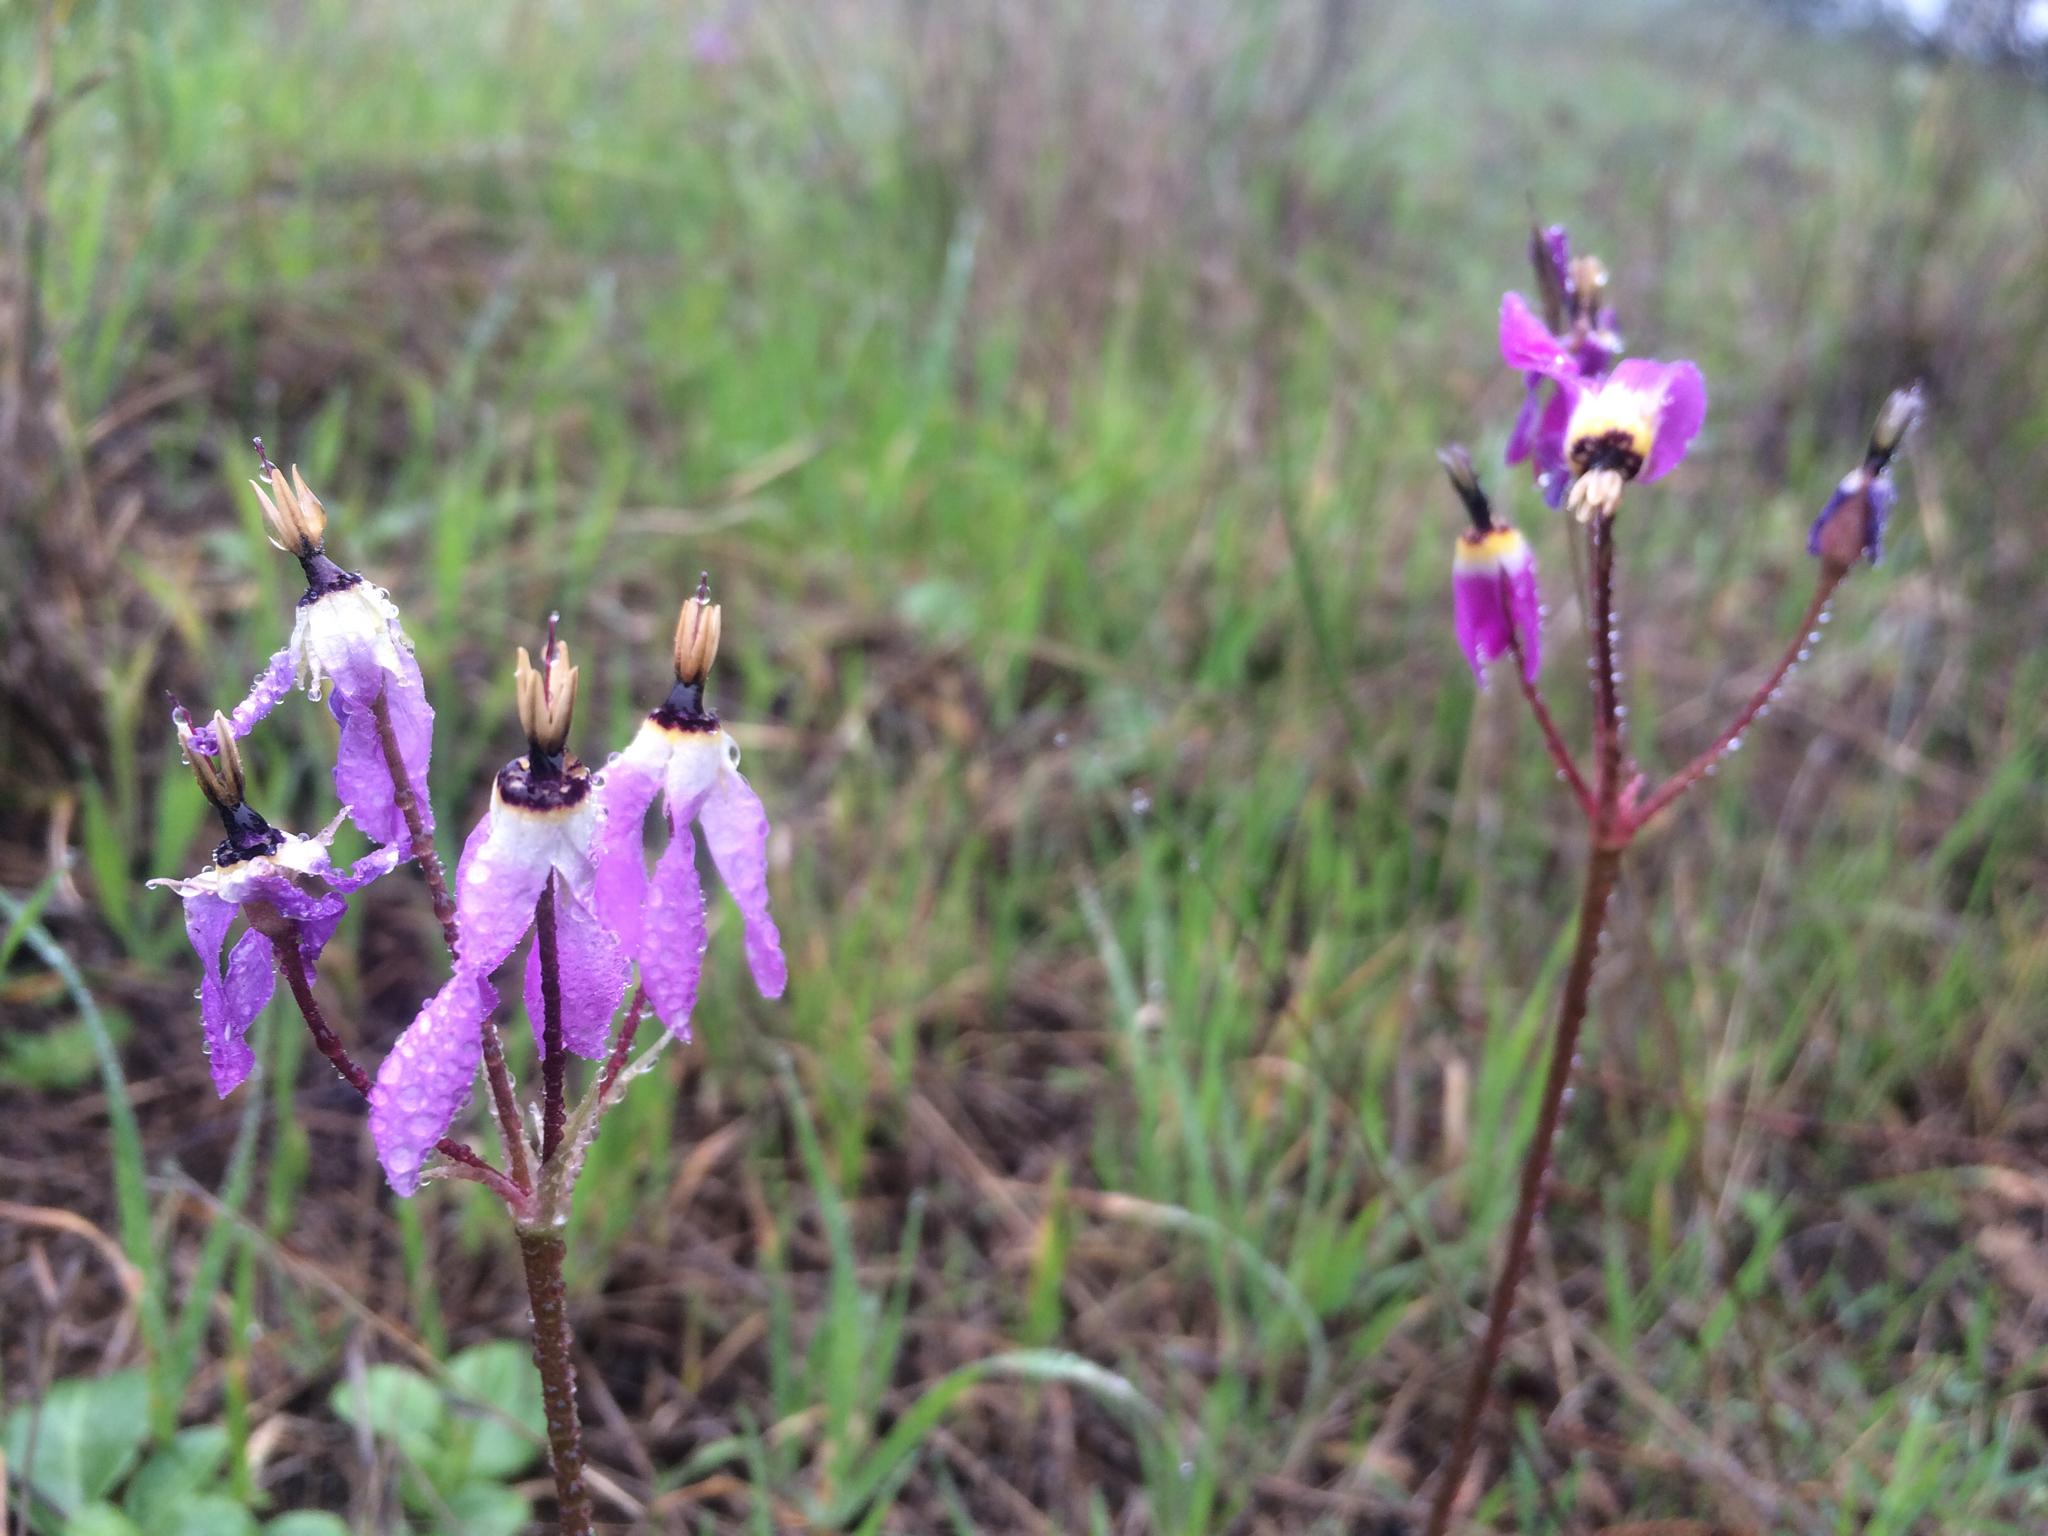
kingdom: Plantae
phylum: Tracheophyta
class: Magnoliopsida
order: Ericales
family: Primulaceae
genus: Dodecatheon
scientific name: Dodecatheon hendersonii
